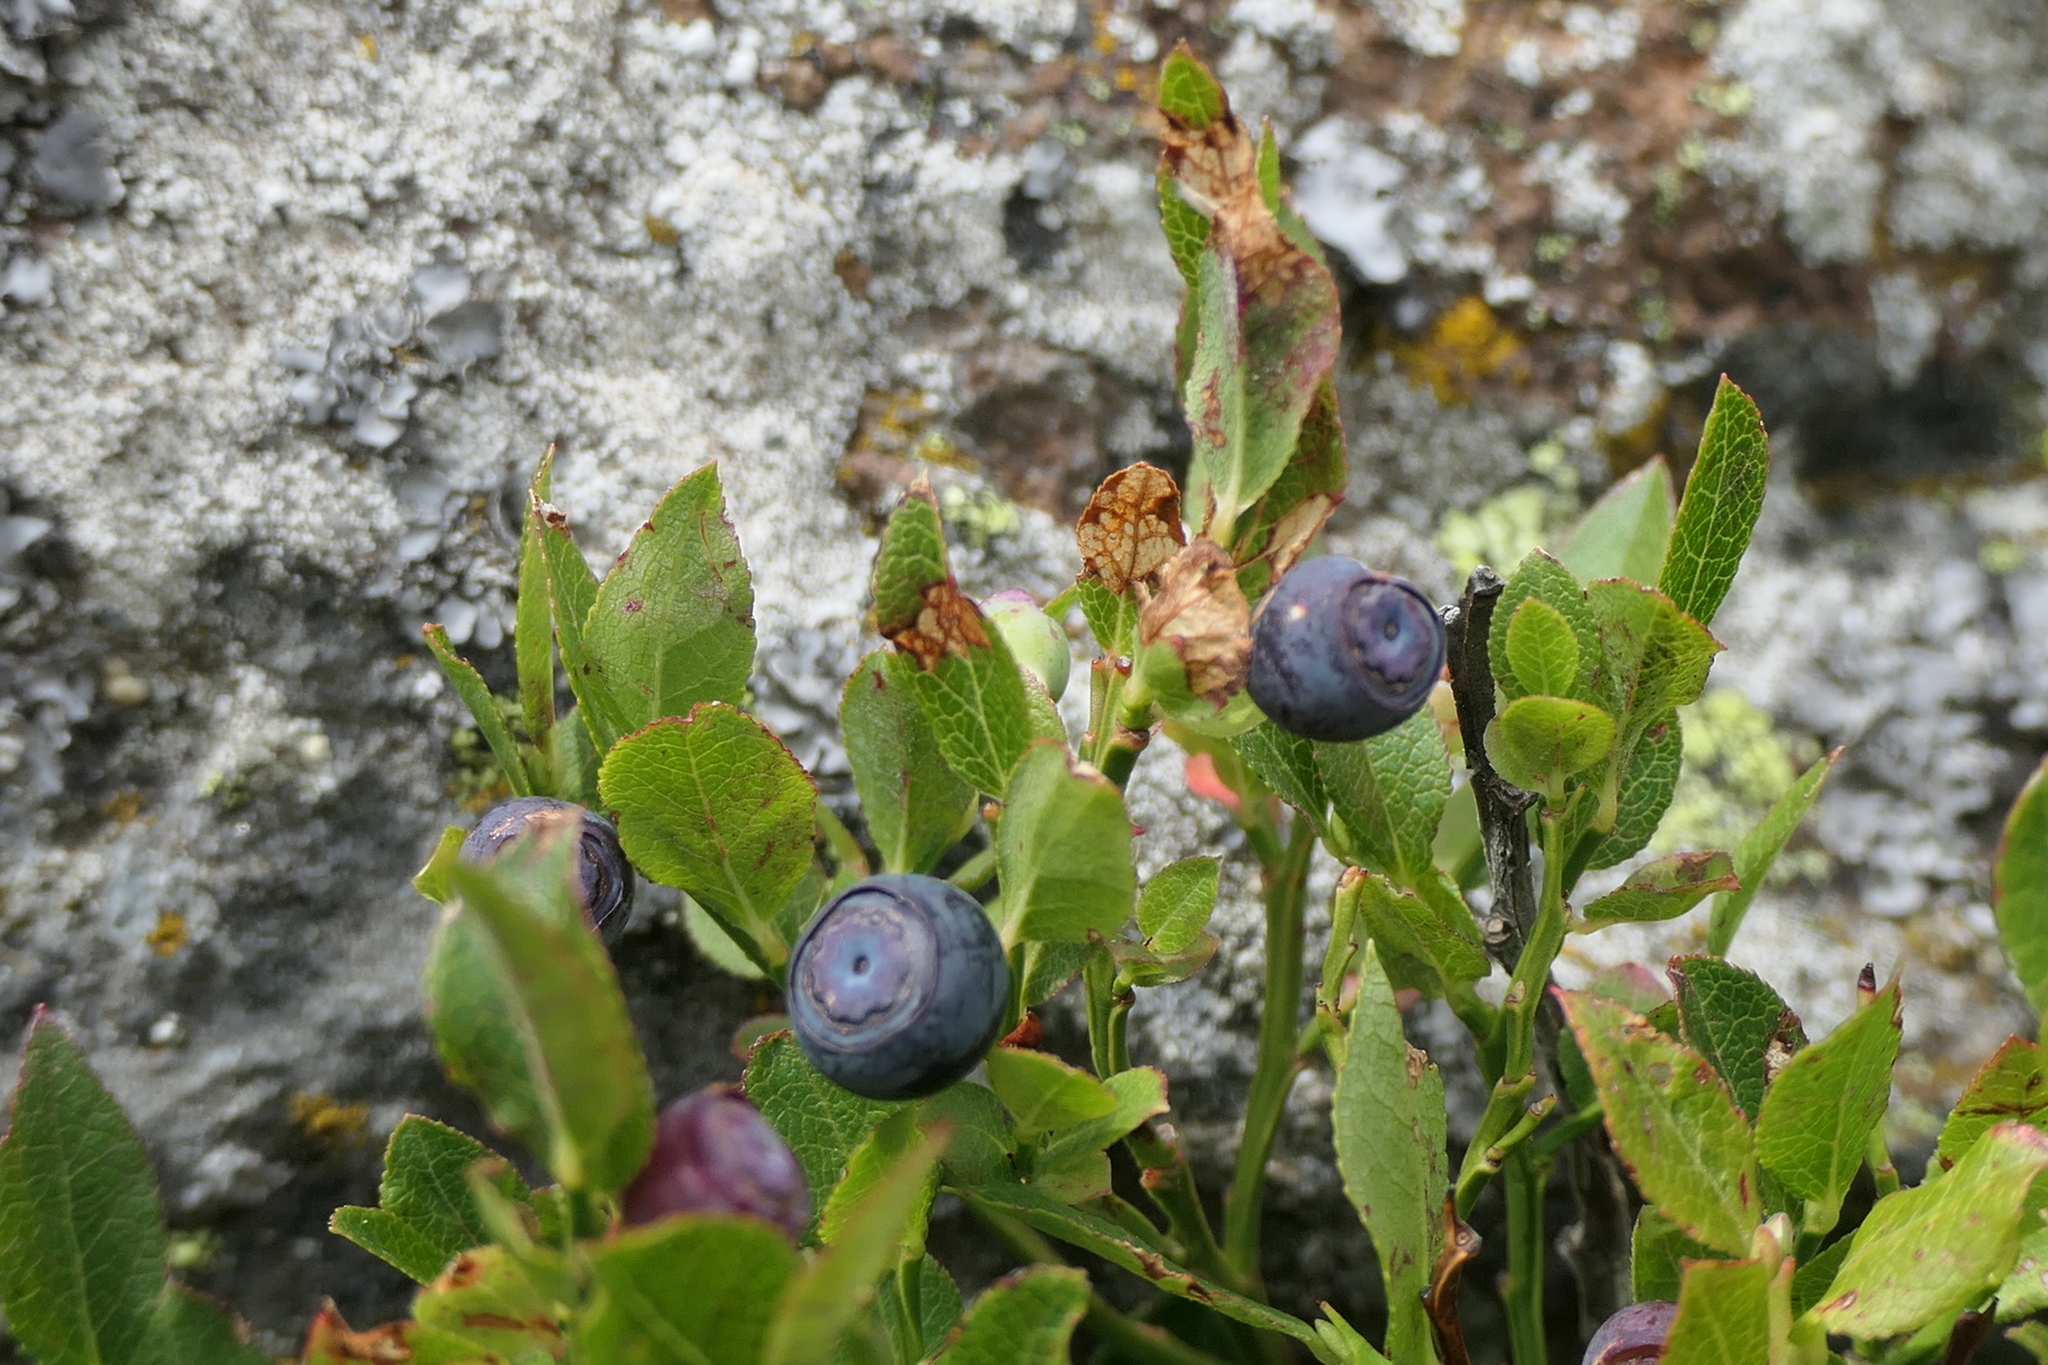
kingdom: Plantae
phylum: Tracheophyta
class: Magnoliopsida
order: Ericales
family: Ericaceae
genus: Vaccinium
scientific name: Vaccinium myrtillus
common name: Bilberry
